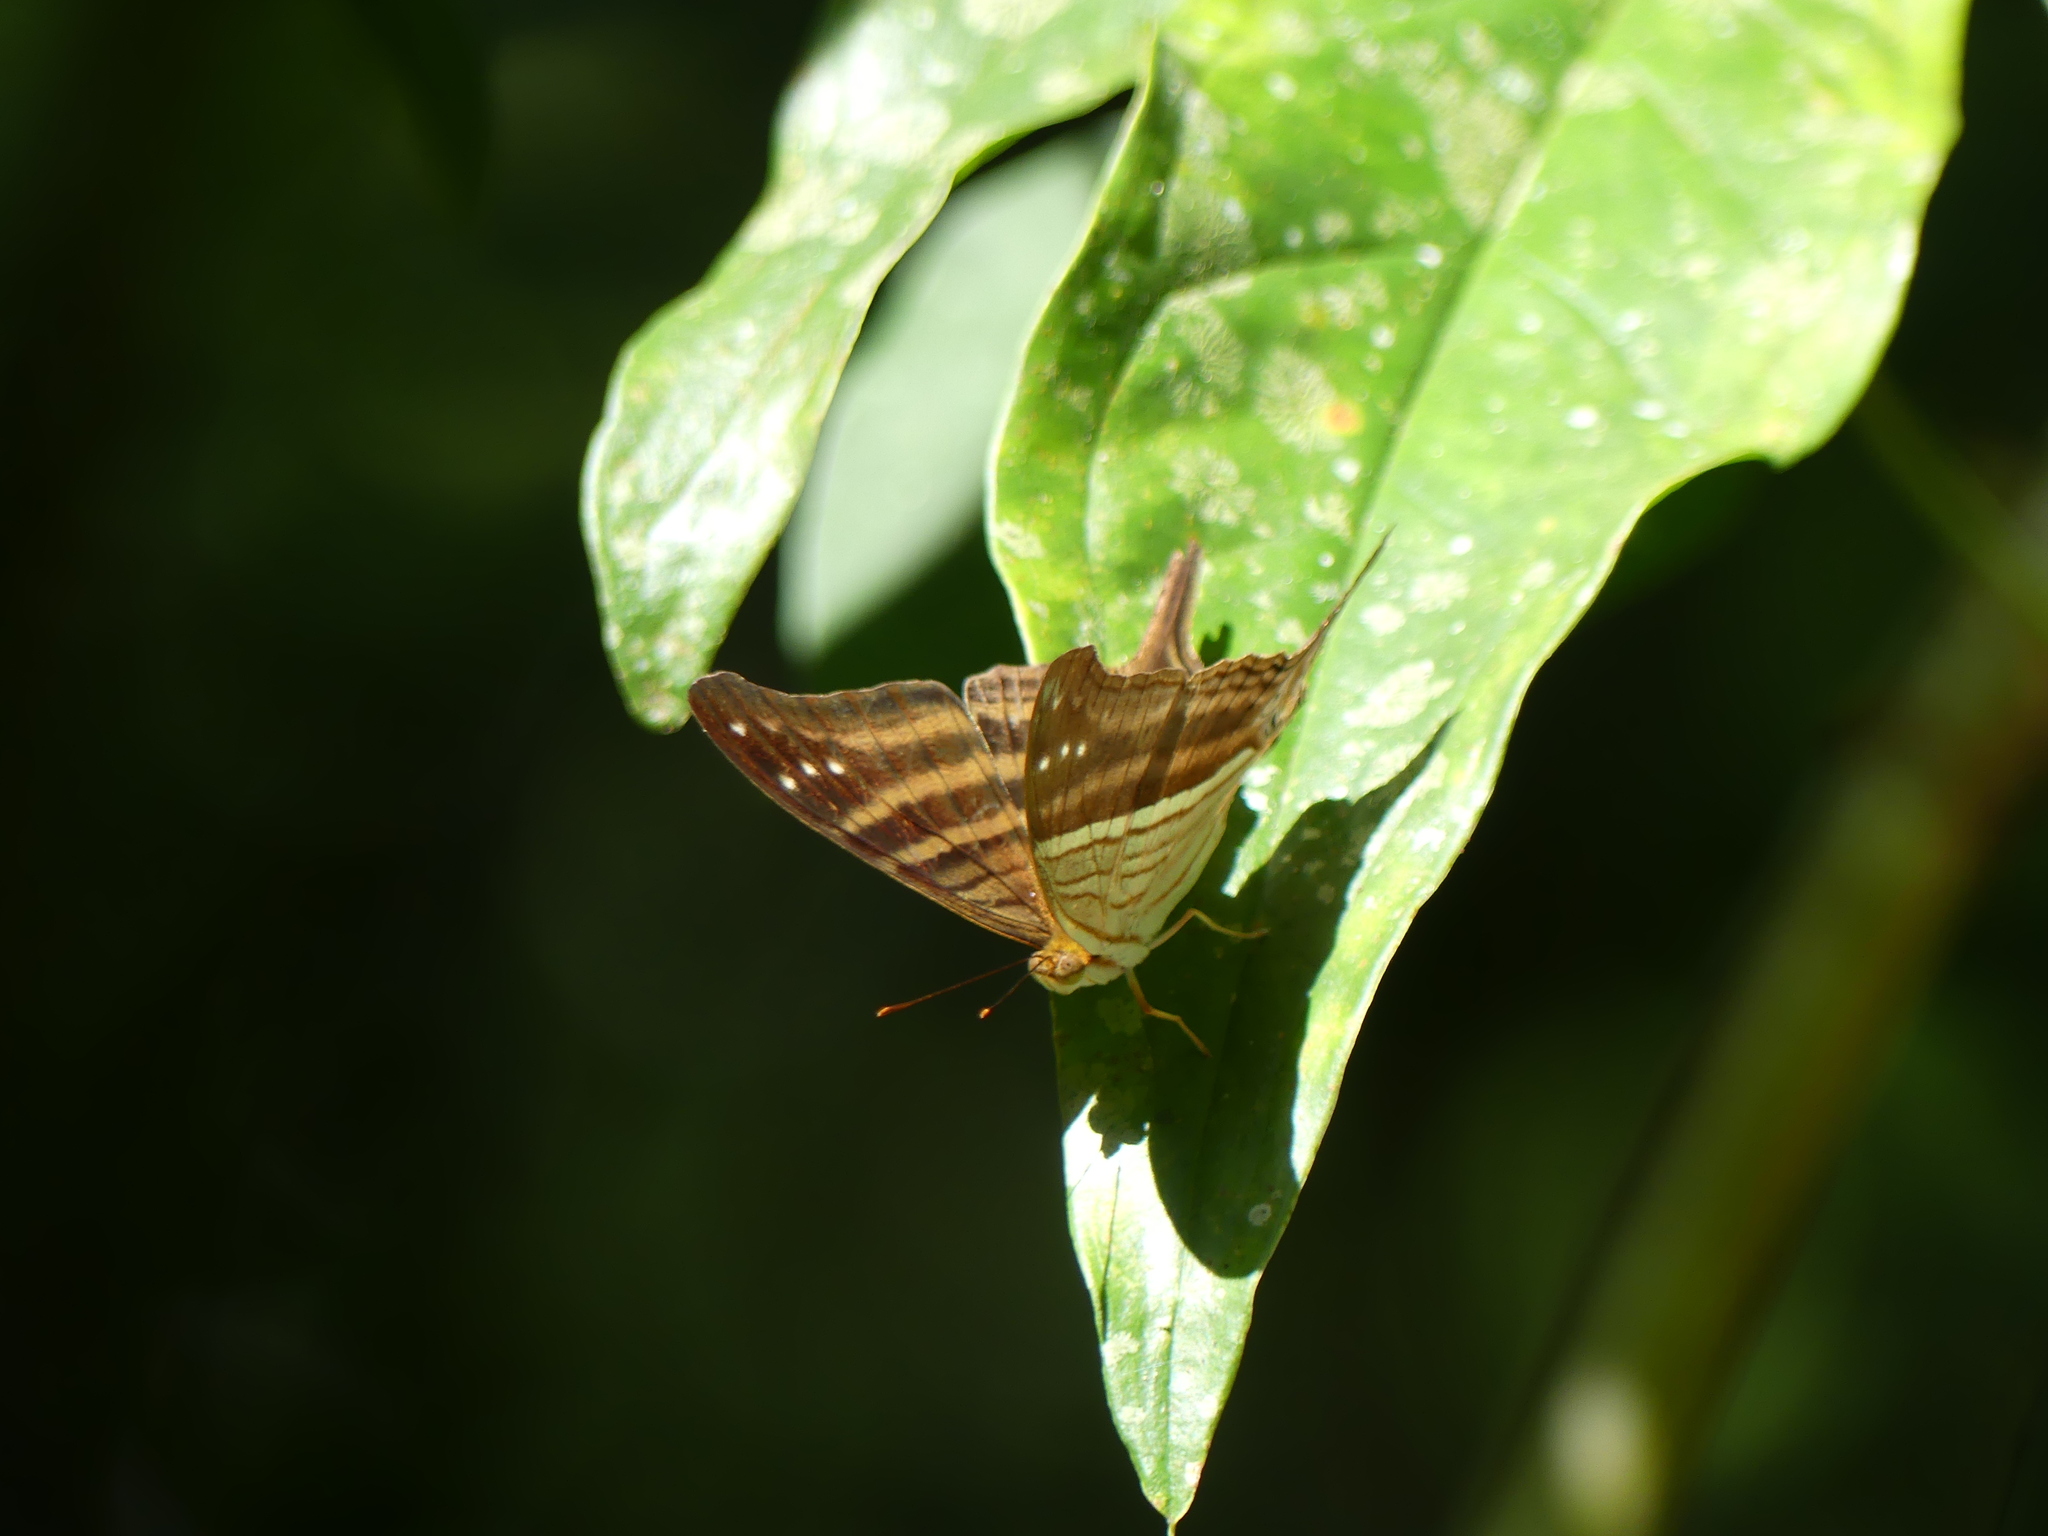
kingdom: Animalia
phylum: Arthropoda
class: Insecta
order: Lepidoptera
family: Nymphalidae
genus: Marpesia
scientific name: Marpesia chiron
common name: Many-banded daggerwing
